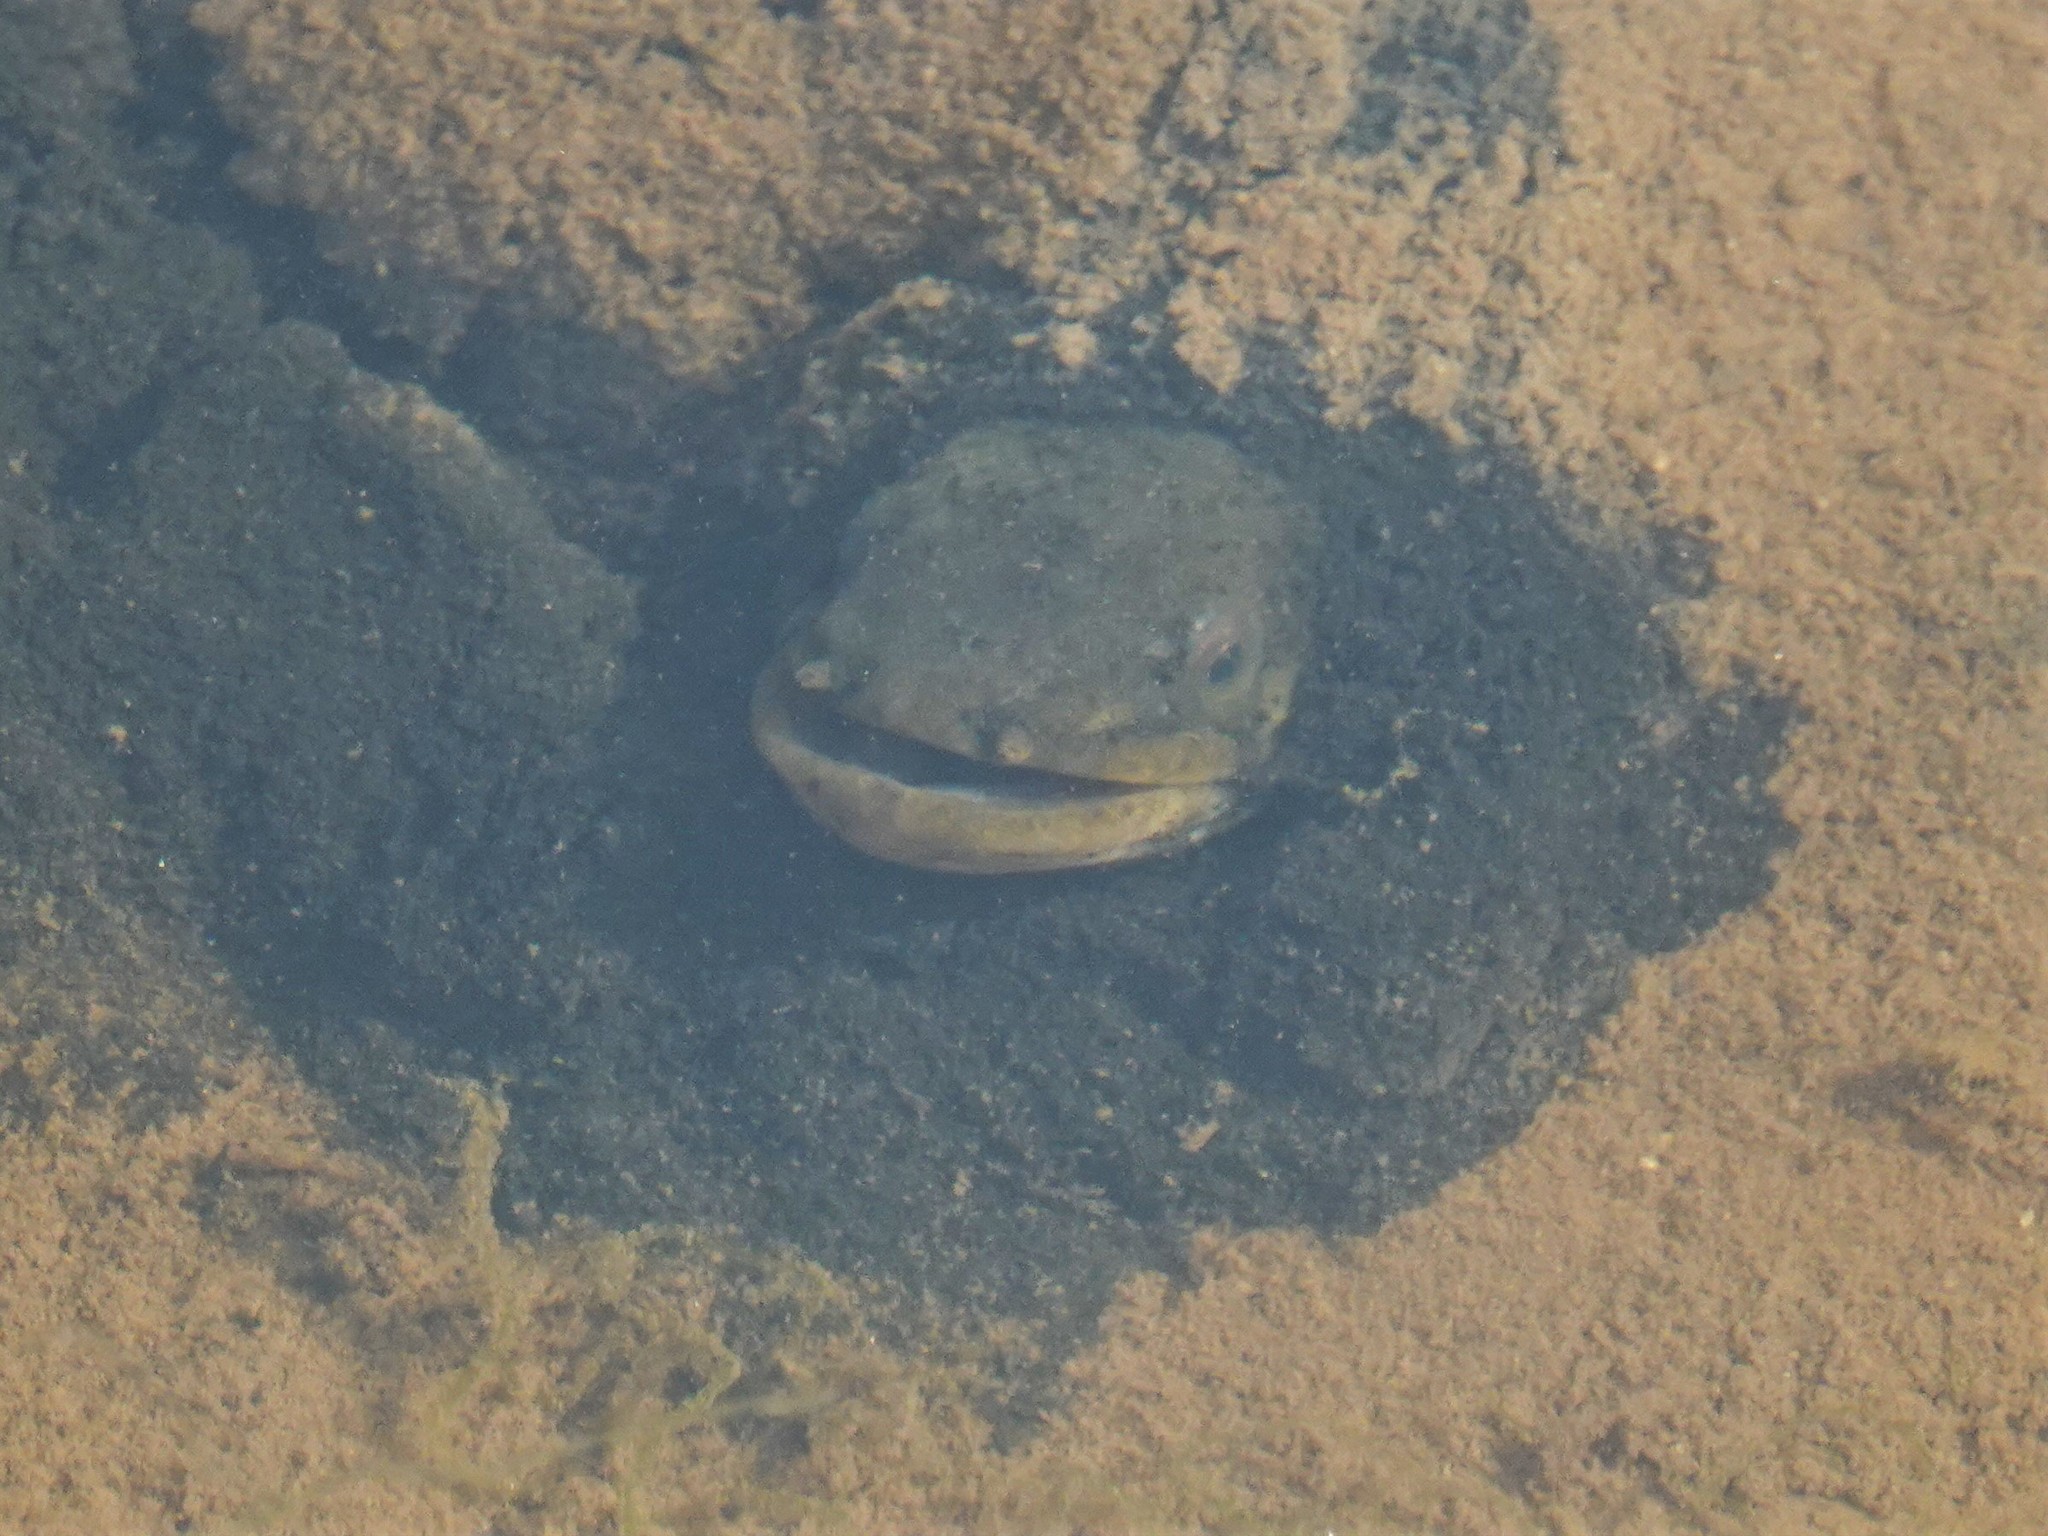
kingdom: Animalia
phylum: Chordata
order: Anguilliformes
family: Anguillidae
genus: Anguilla
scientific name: Anguilla dieffenbachii
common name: New zealand longfin eel
